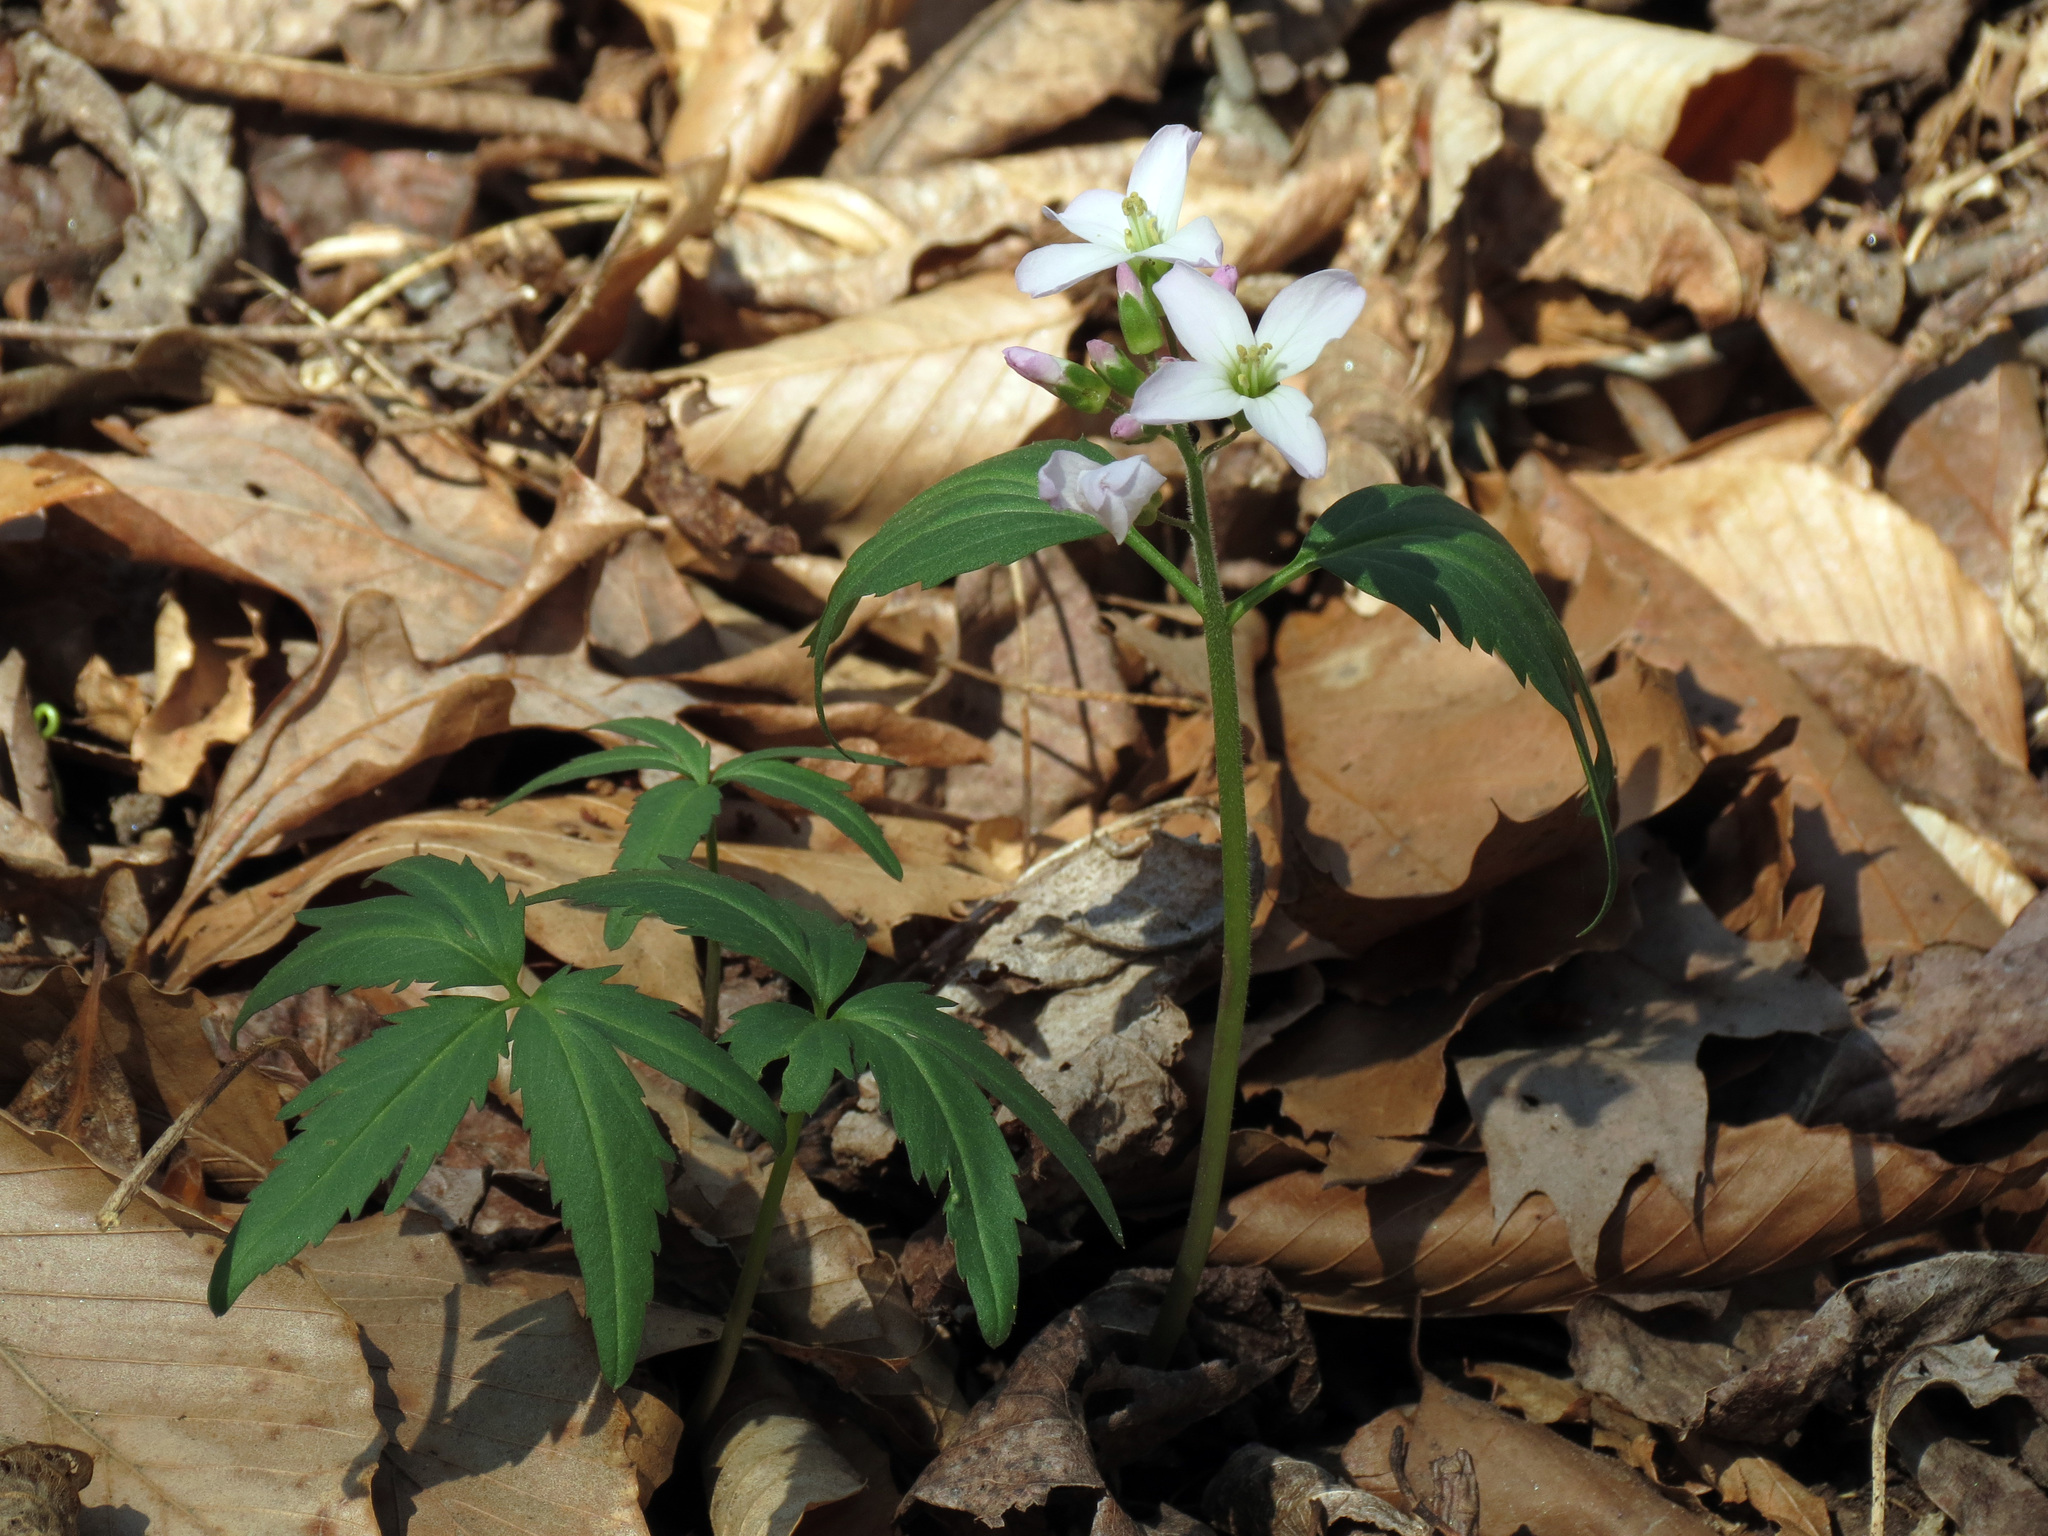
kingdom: Plantae
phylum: Tracheophyta
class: Magnoliopsida
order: Brassicales
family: Brassicaceae
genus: Cardamine
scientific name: Cardamine concatenata
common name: Cut-leaf toothcup
